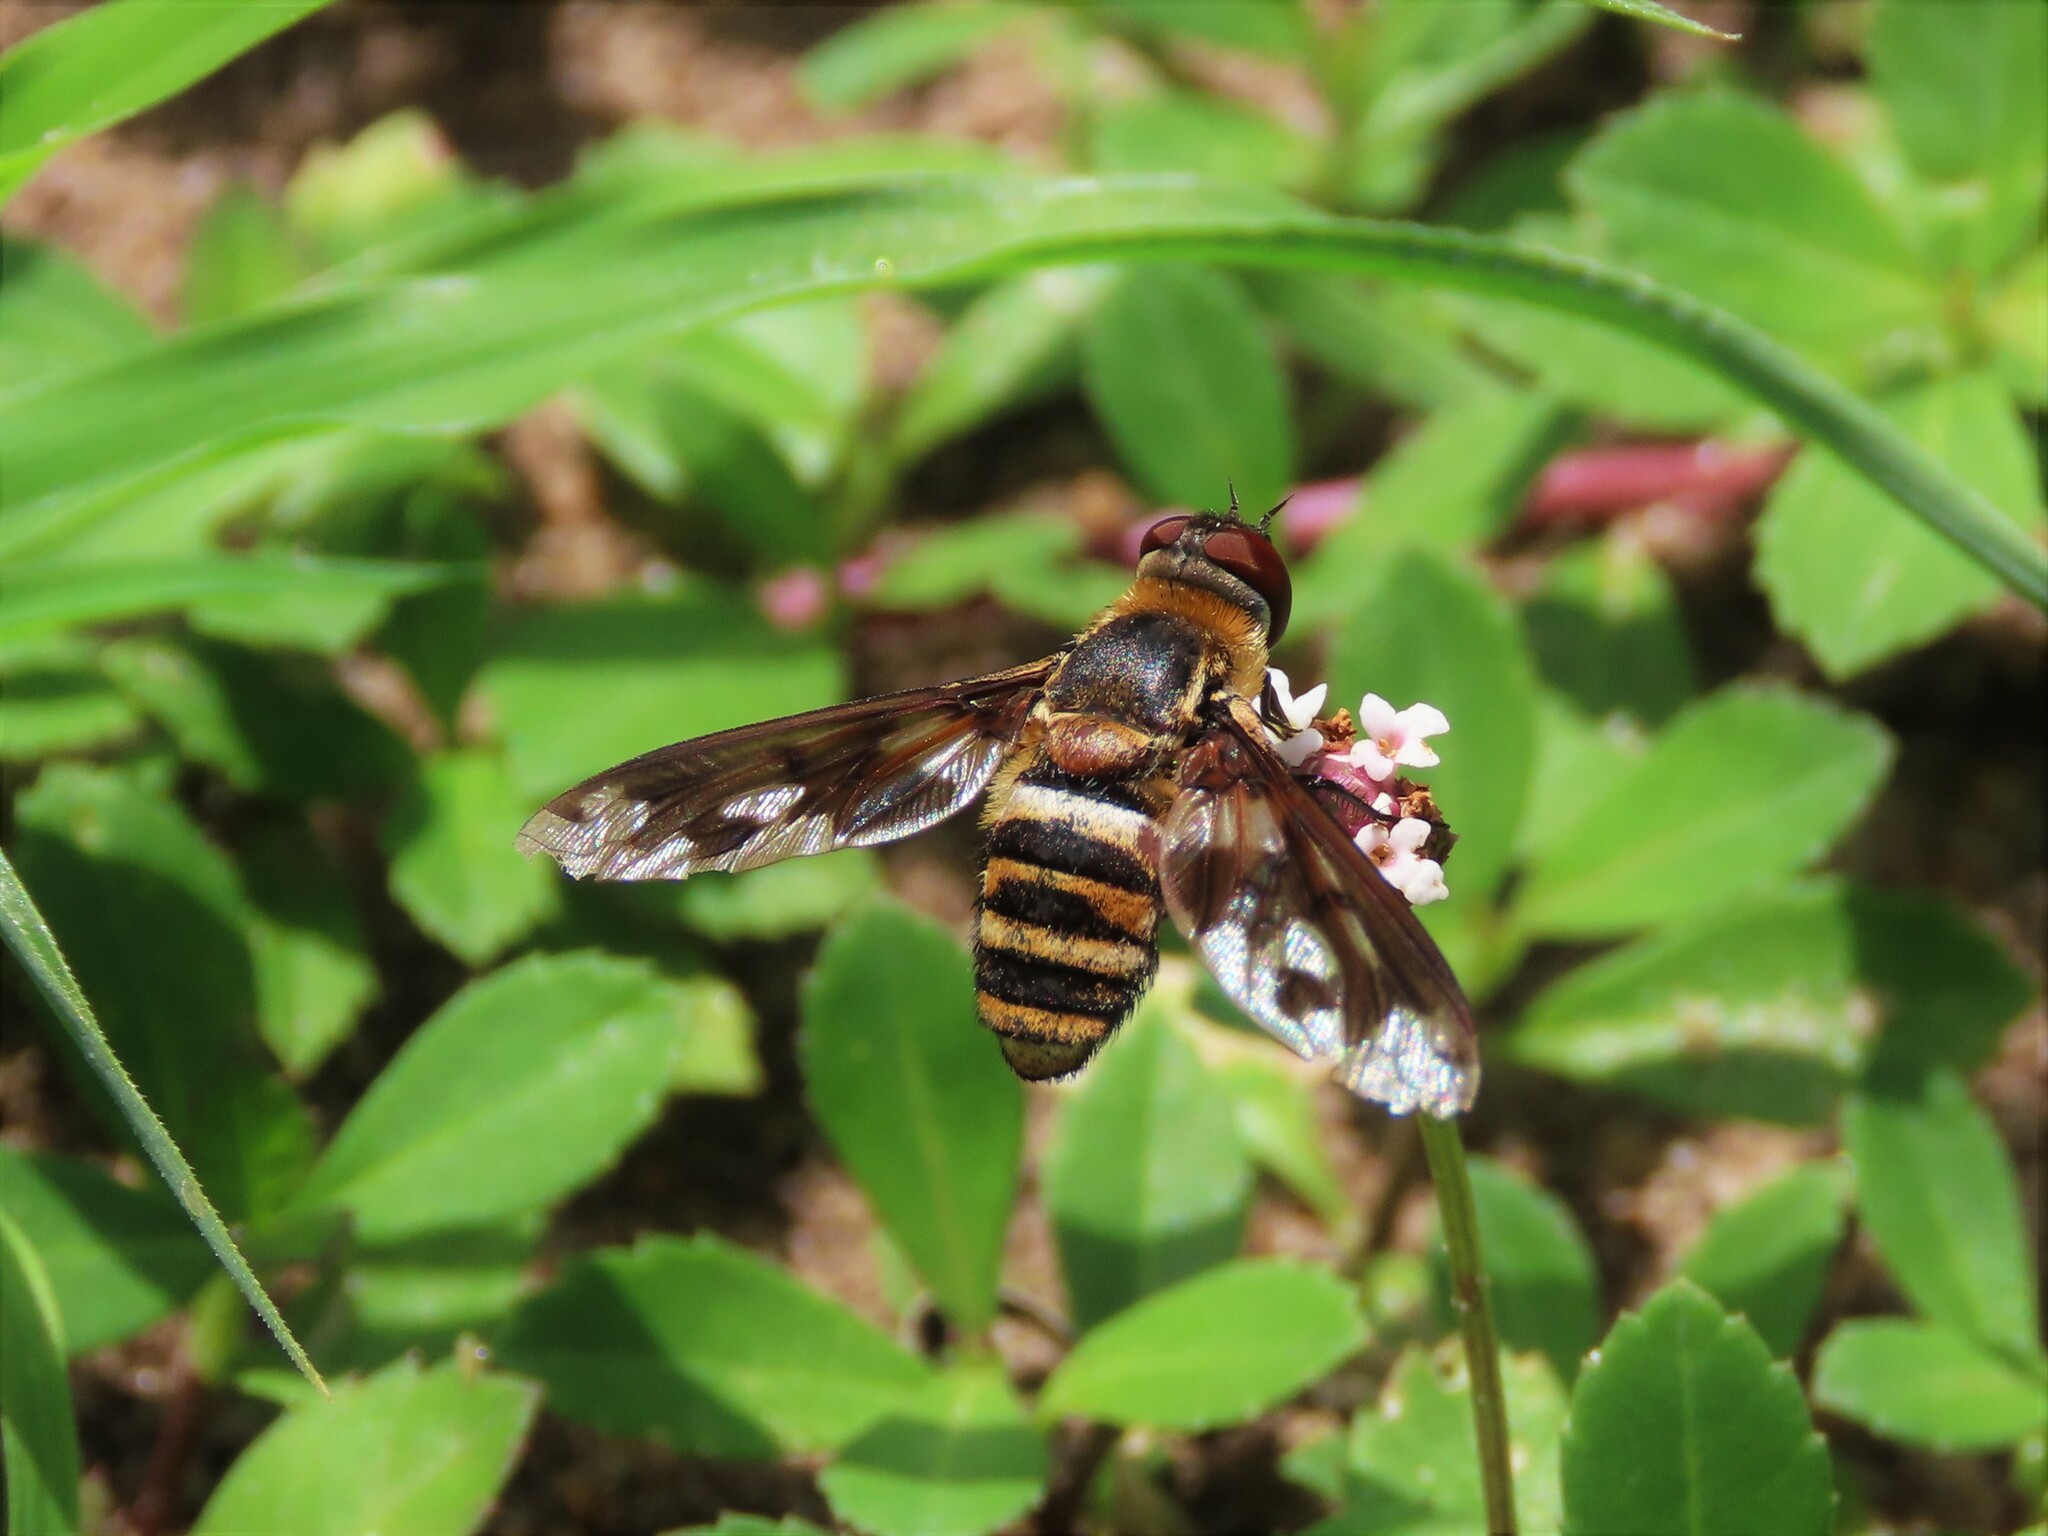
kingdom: Animalia
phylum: Arthropoda
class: Insecta
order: Diptera
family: Bombyliidae
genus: Exoprosopa
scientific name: Exoprosopa fascipennis
